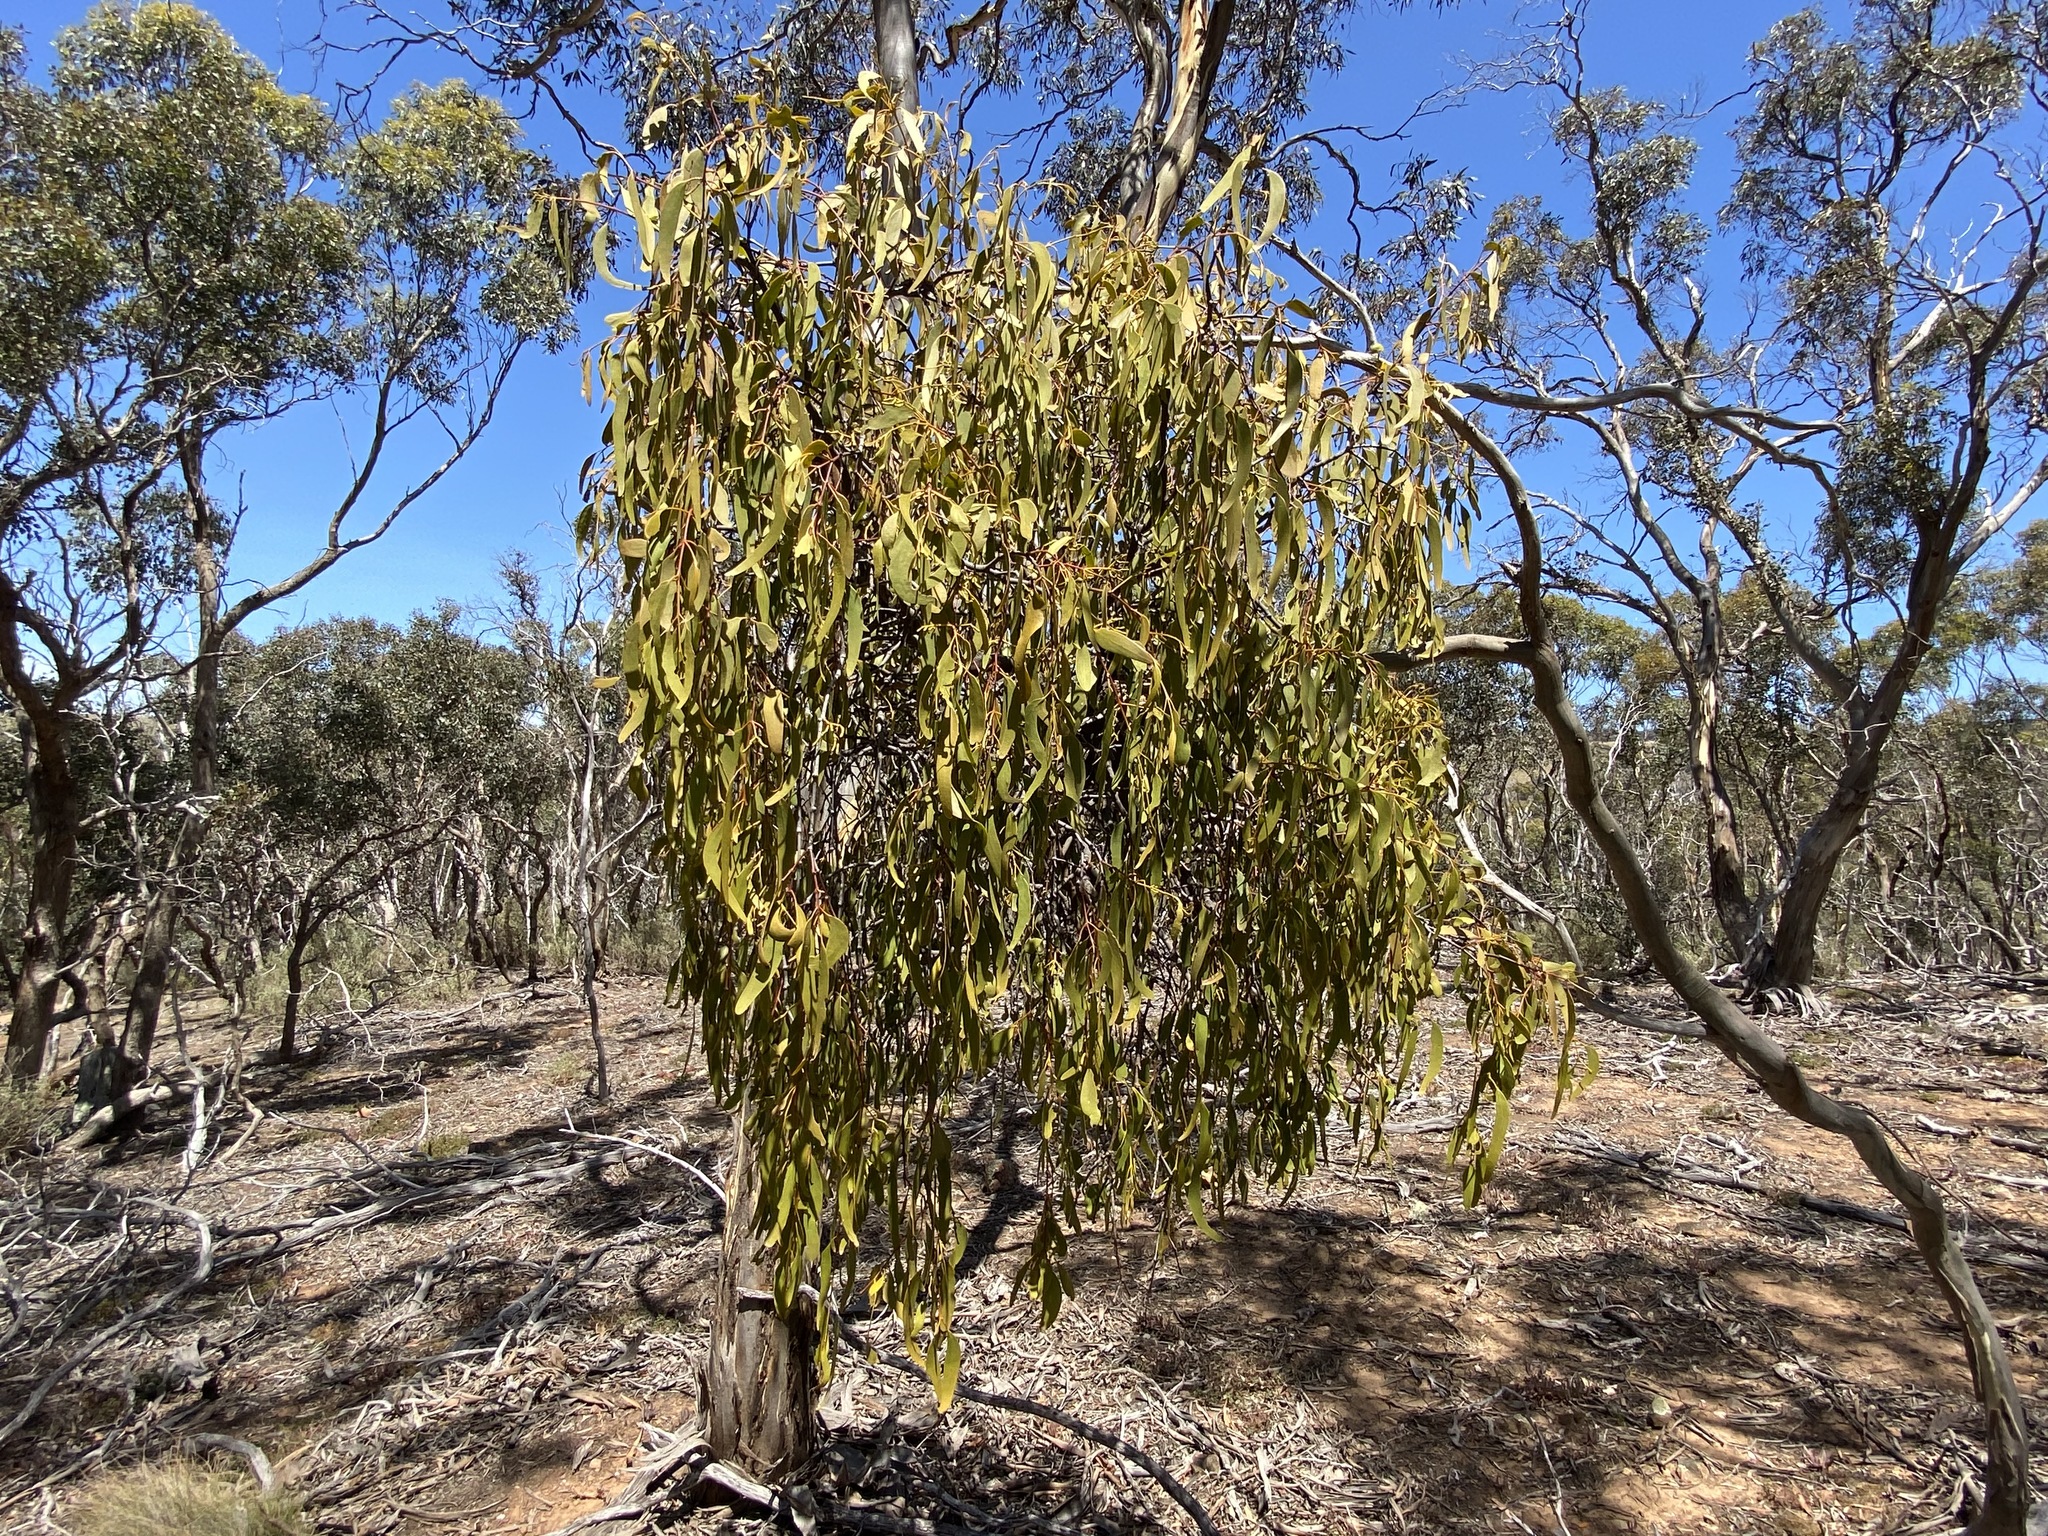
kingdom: Plantae
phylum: Tracheophyta
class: Magnoliopsida
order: Santalales
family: Loranthaceae
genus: Amyema
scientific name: Amyema miquelii
